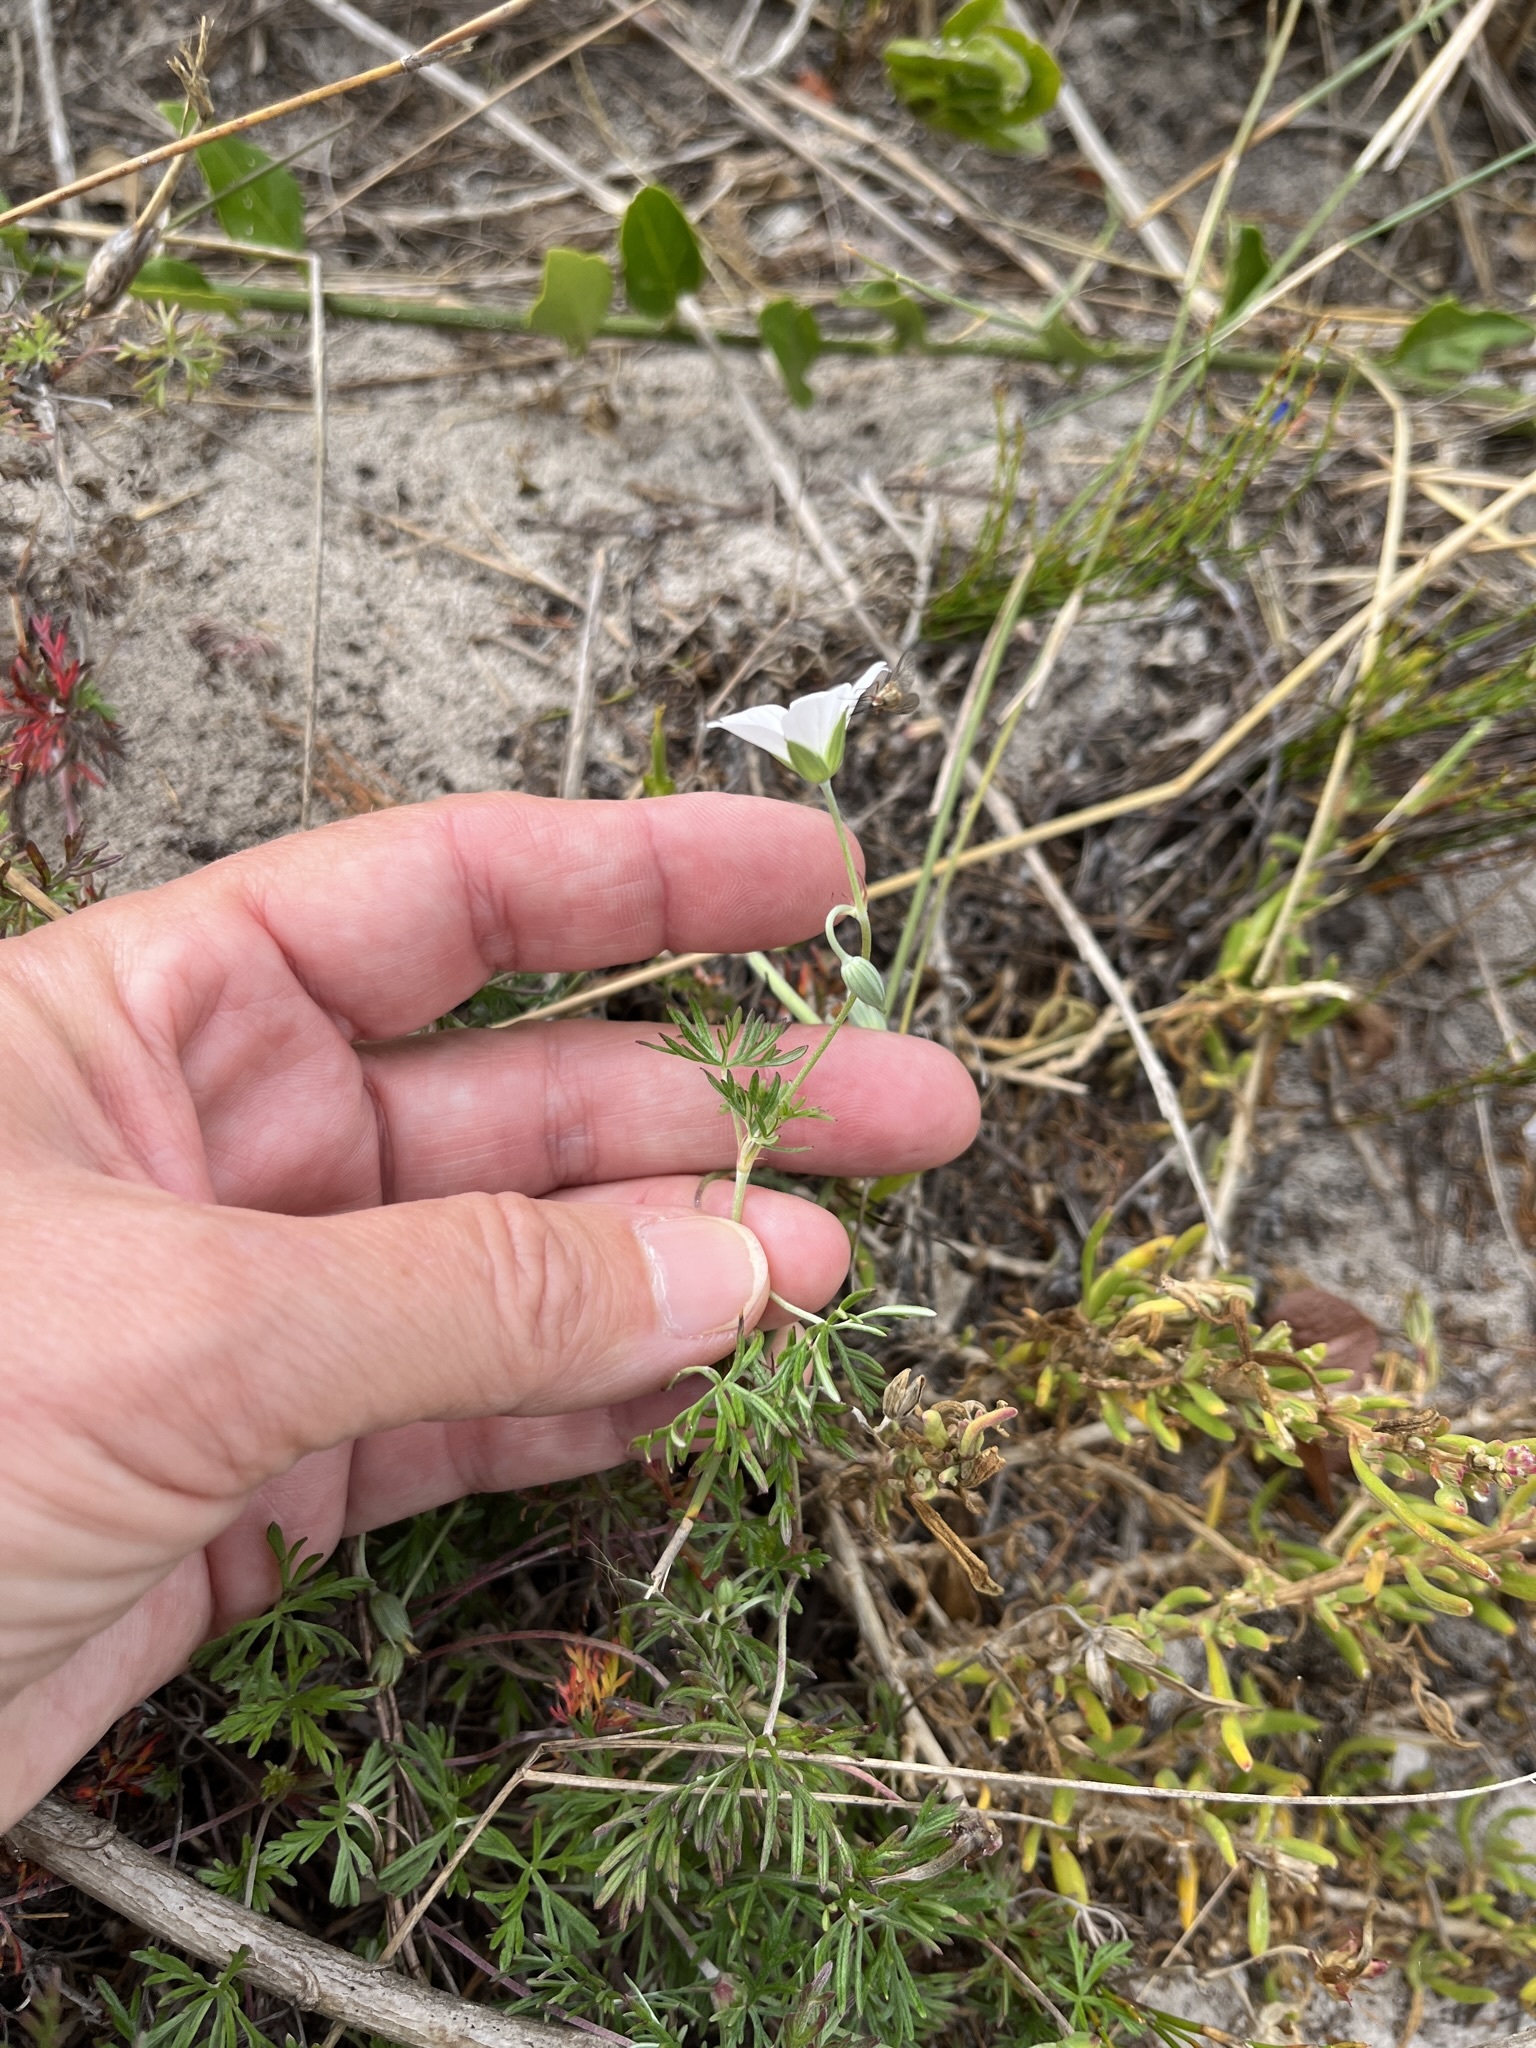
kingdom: Plantae
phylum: Tracheophyta
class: Magnoliopsida
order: Geraniales
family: Geraniaceae
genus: Geranium
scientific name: Geranium incanum
